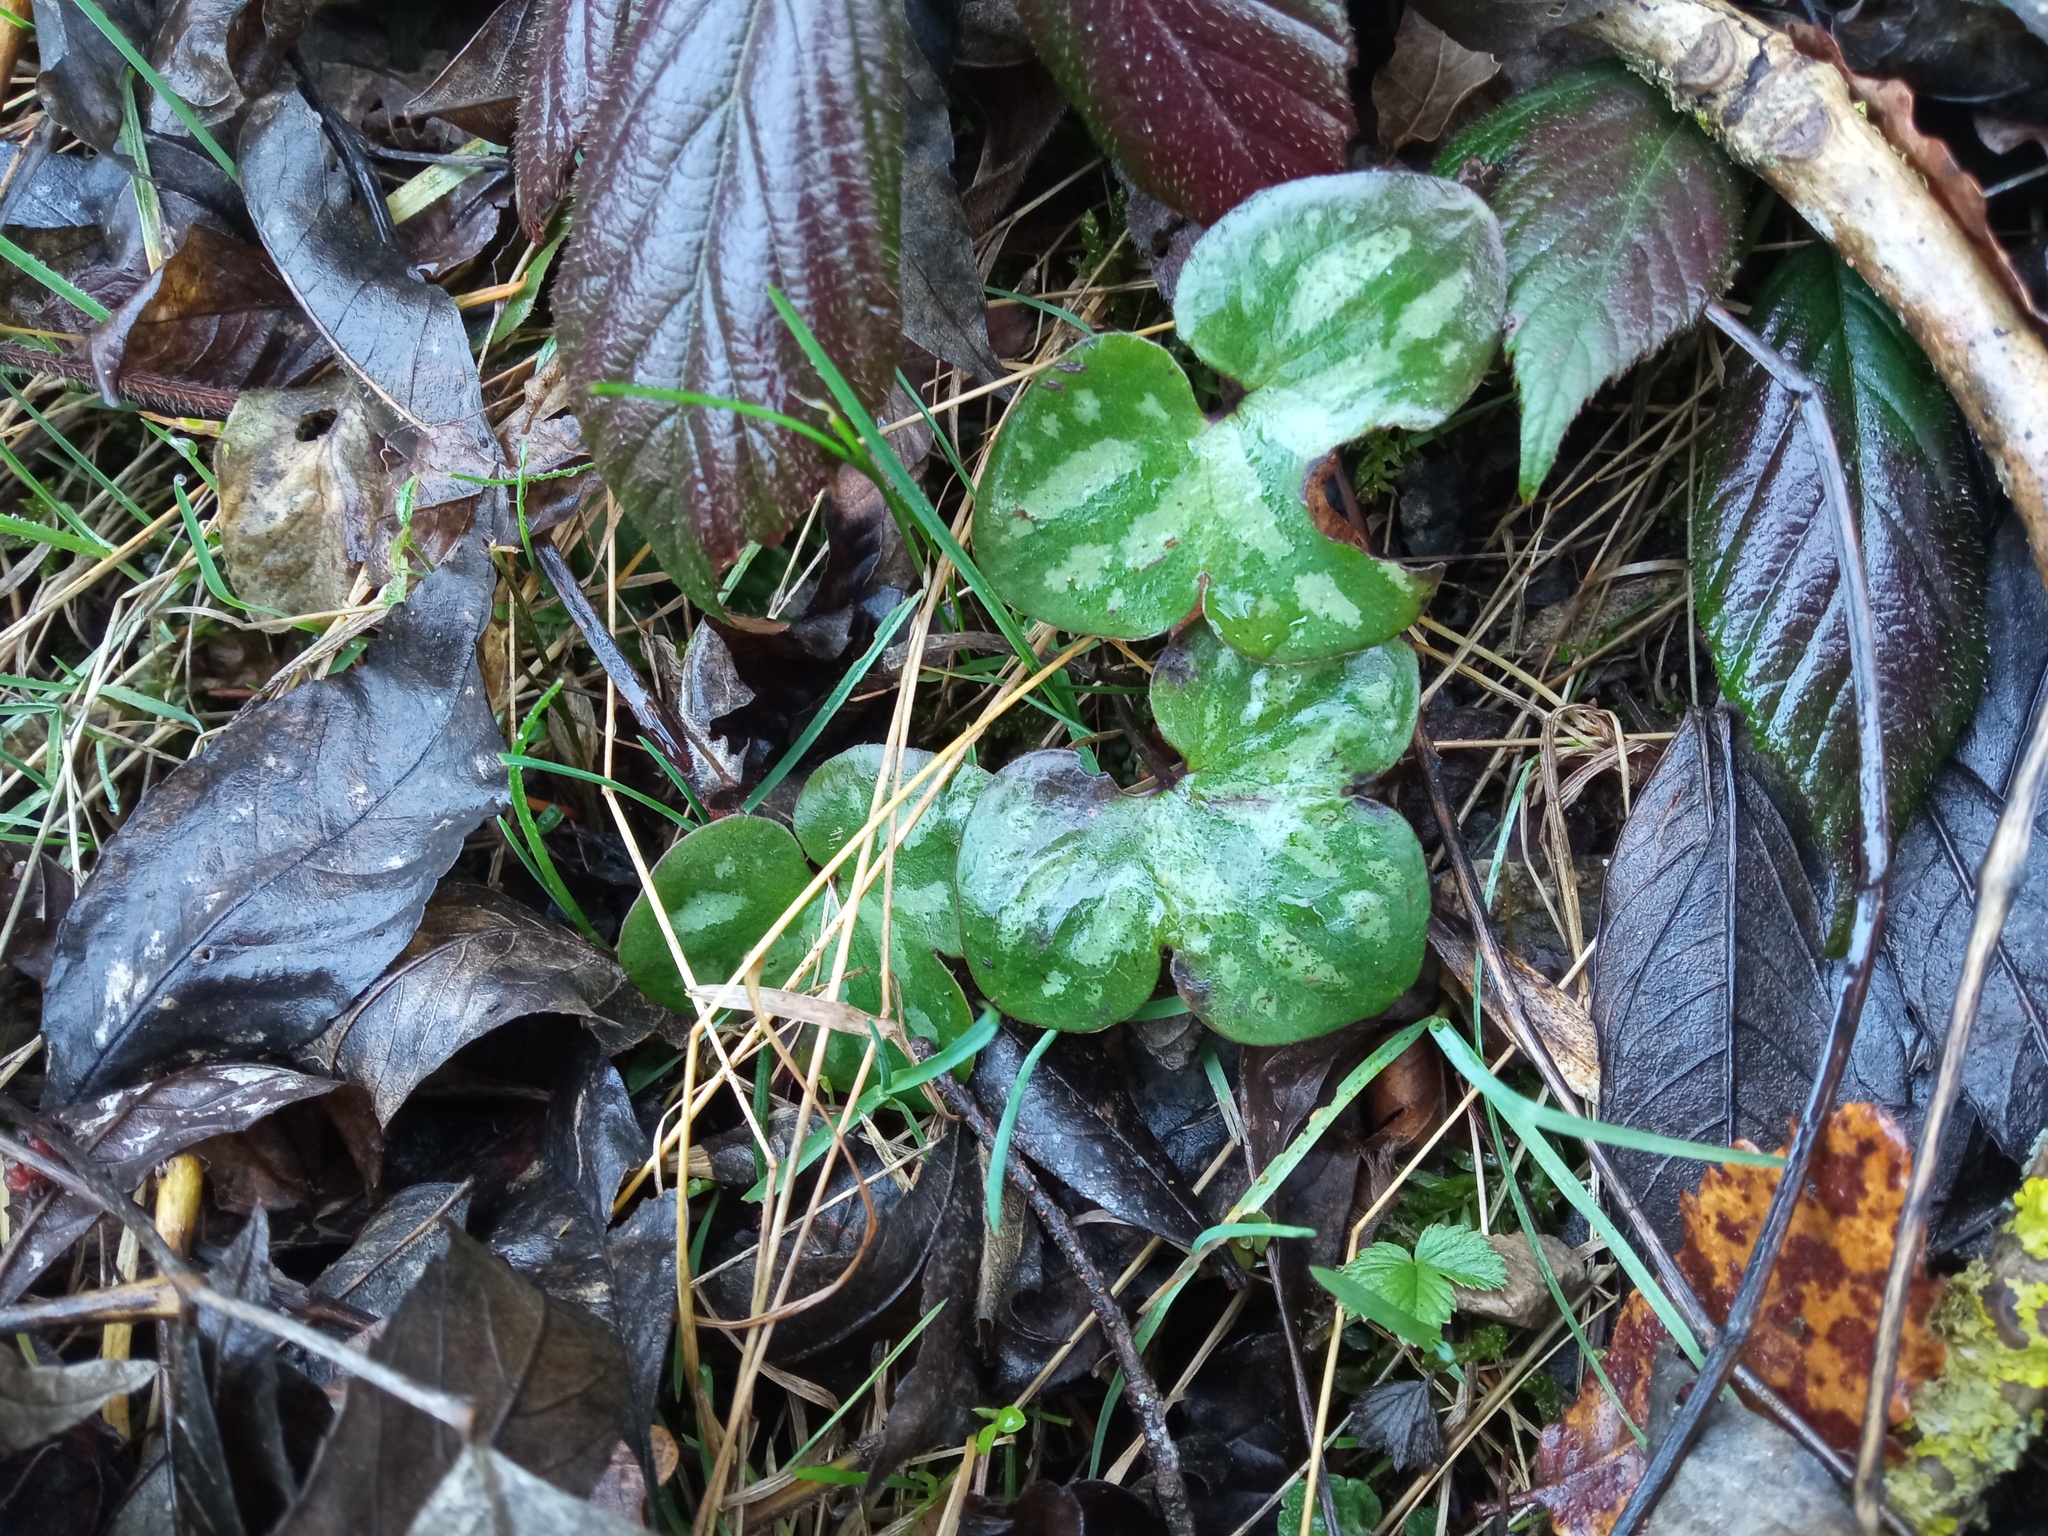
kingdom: Plantae
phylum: Tracheophyta
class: Magnoliopsida
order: Ranunculales
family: Ranunculaceae
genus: Hepatica
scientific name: Hepatica nobilis
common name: Liverleaf
